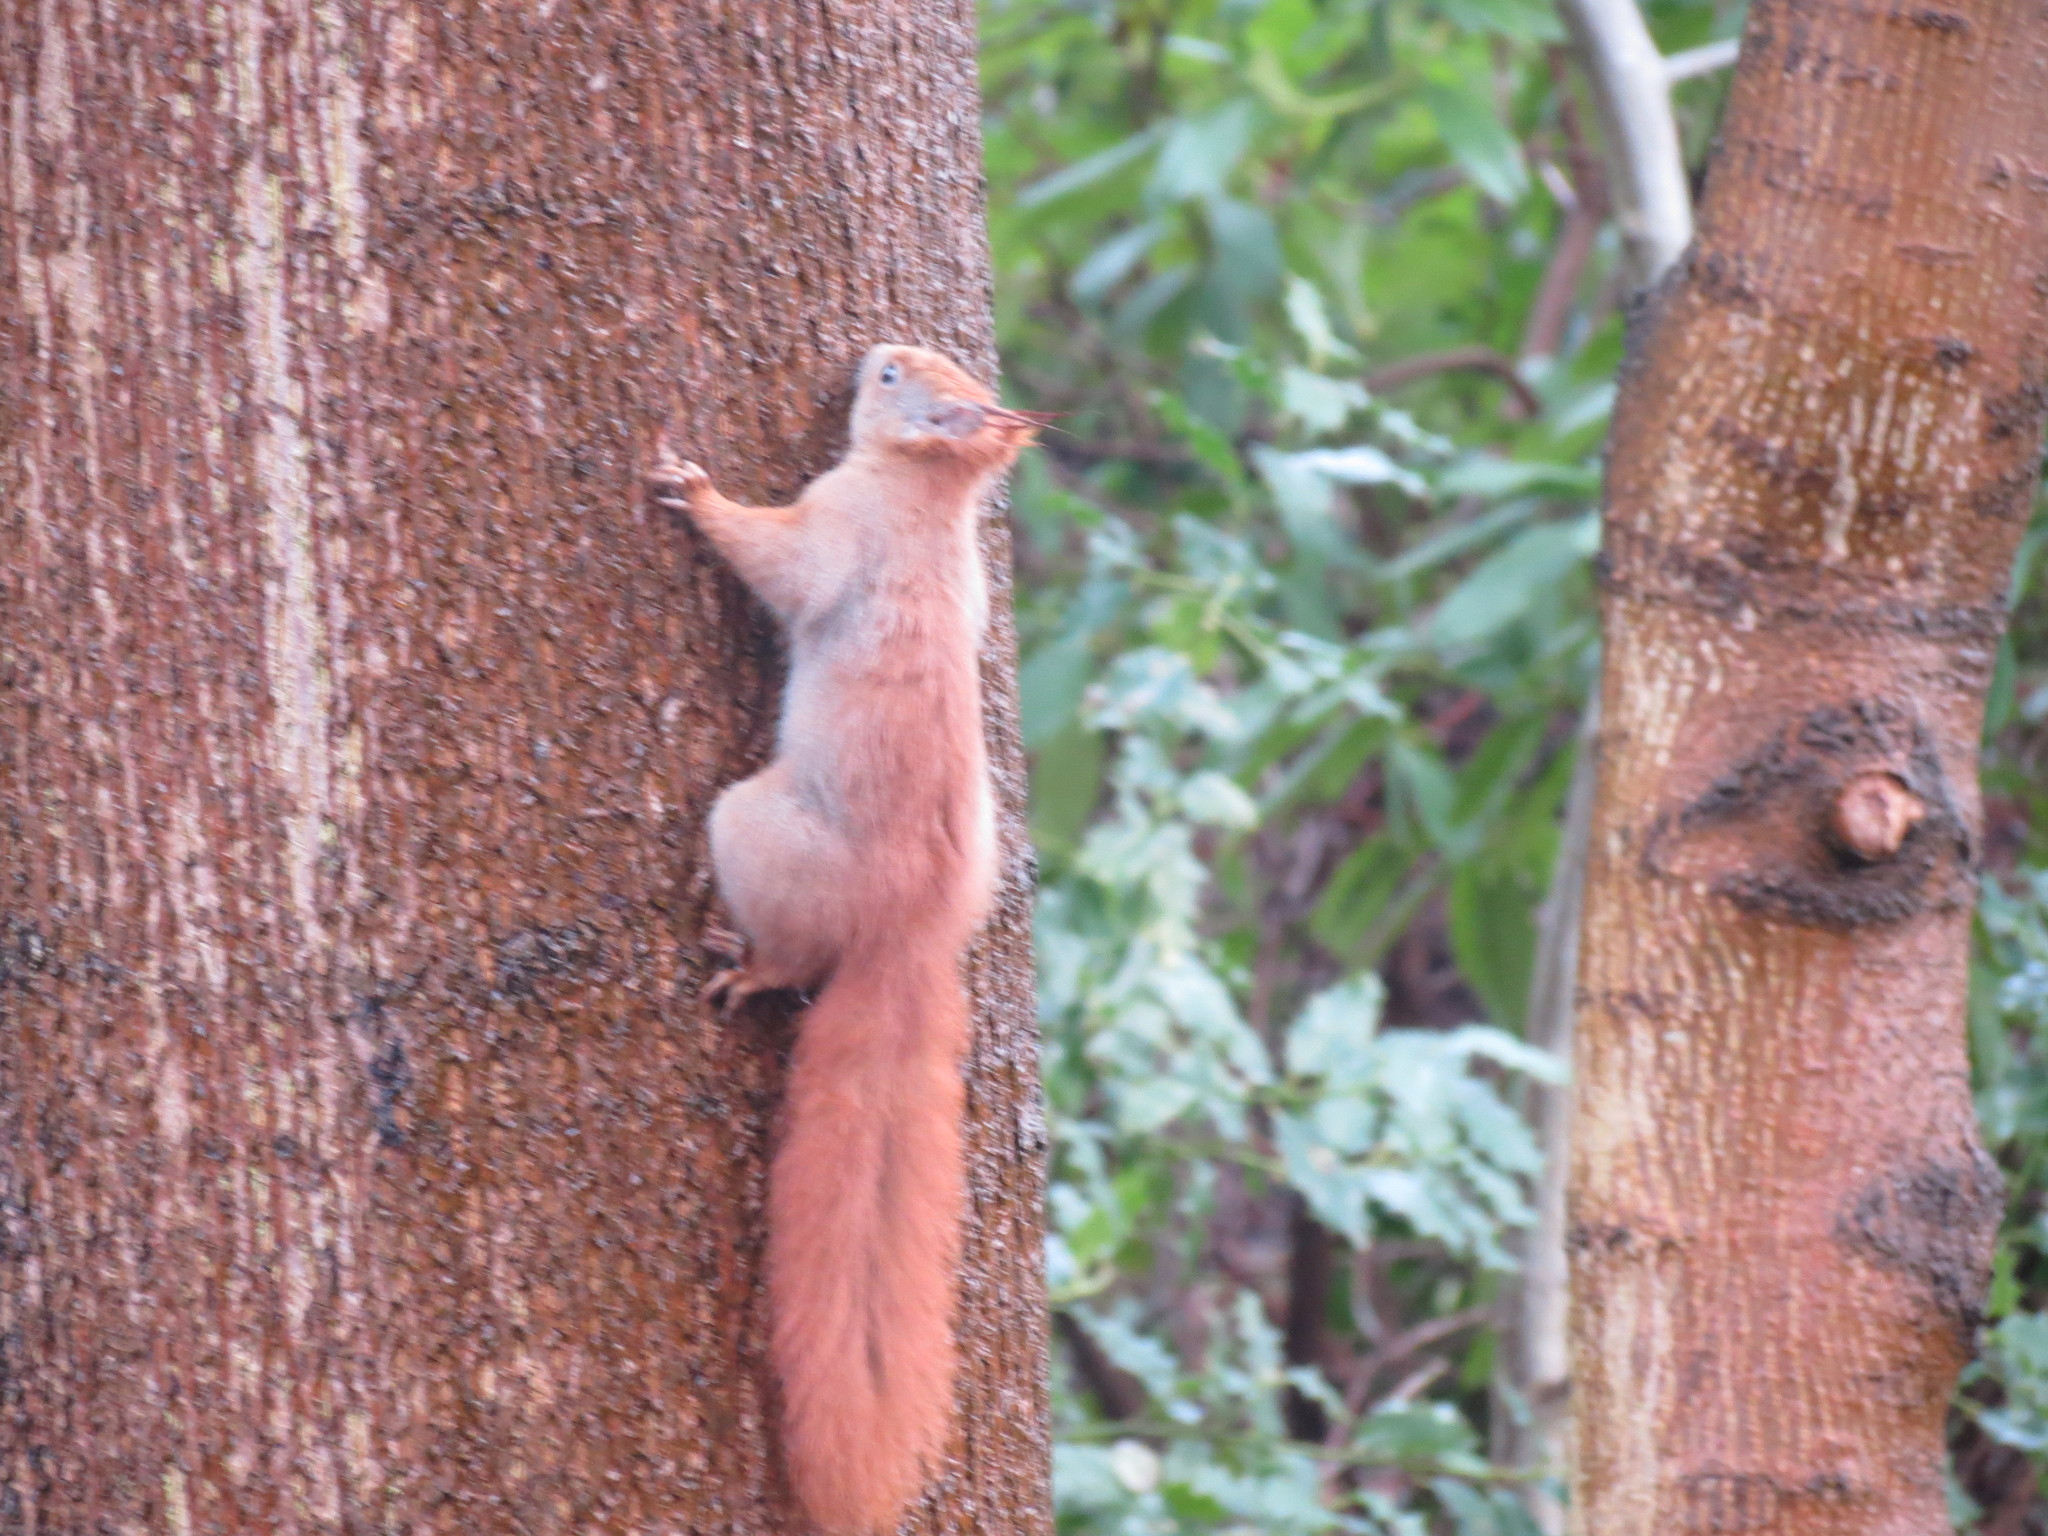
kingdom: Animalia
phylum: Chordata
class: Mammalia
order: Rodentia
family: Sciuridae
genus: Sciurus
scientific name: Sciurus vulgaris
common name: Eurasian red squirrel
